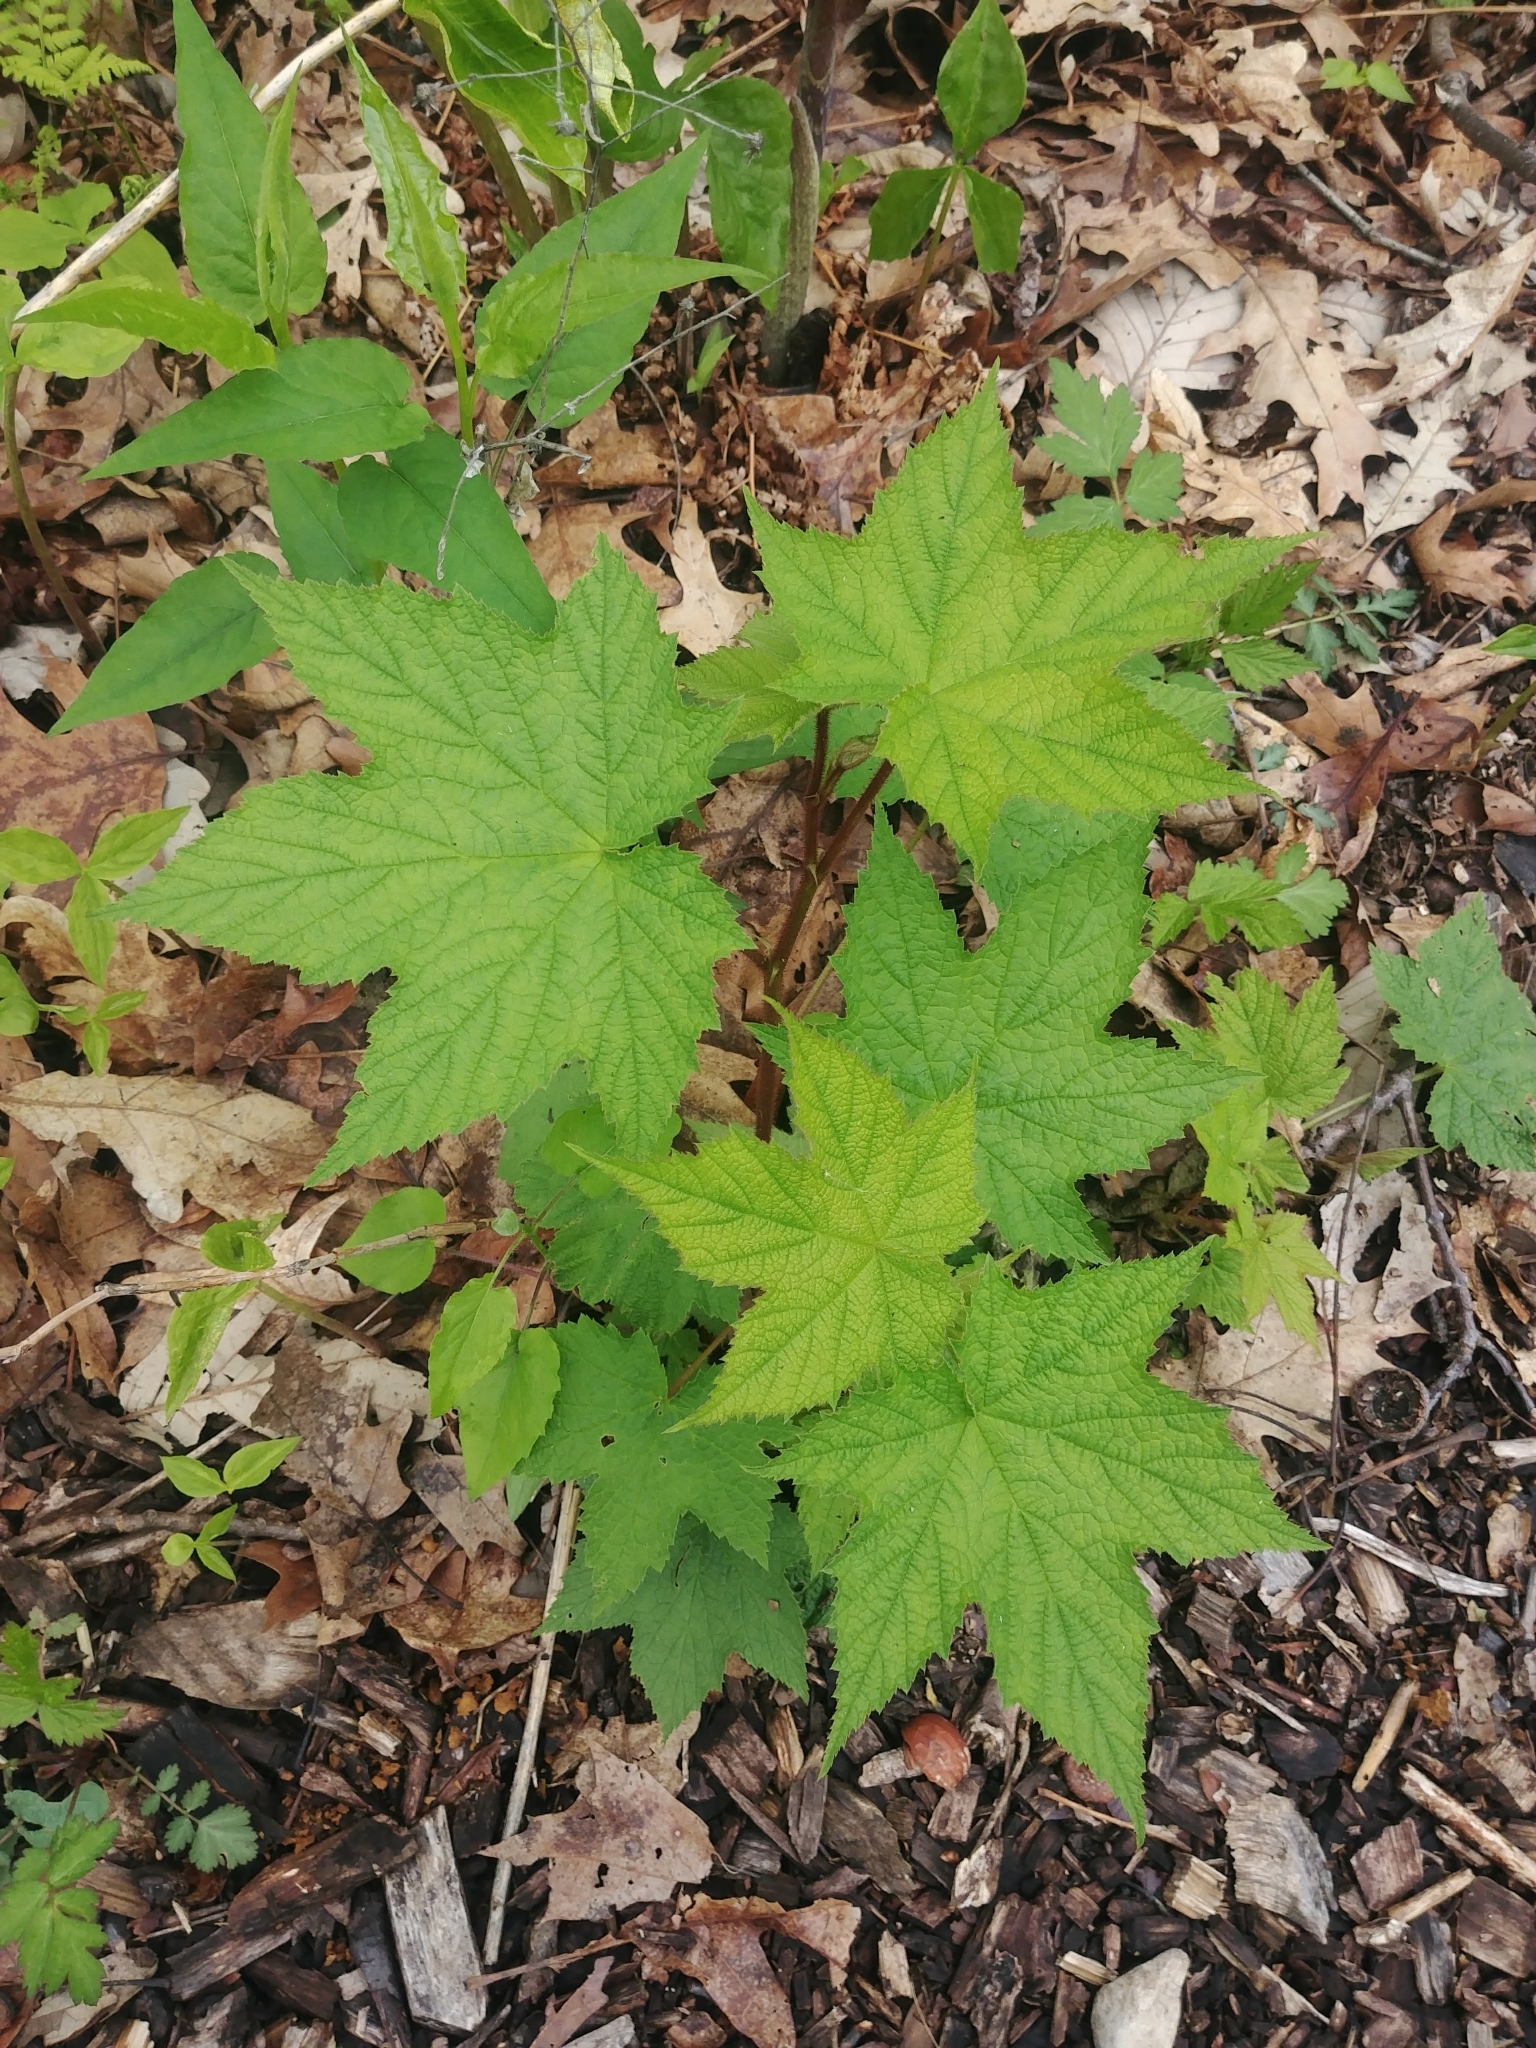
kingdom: Plantae
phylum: Tracheophyta
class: Magnoliopsida
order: Rosales
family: Rosaceae
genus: Rubus
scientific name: Rubus odoratus
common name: Purple-flowered raspberry
